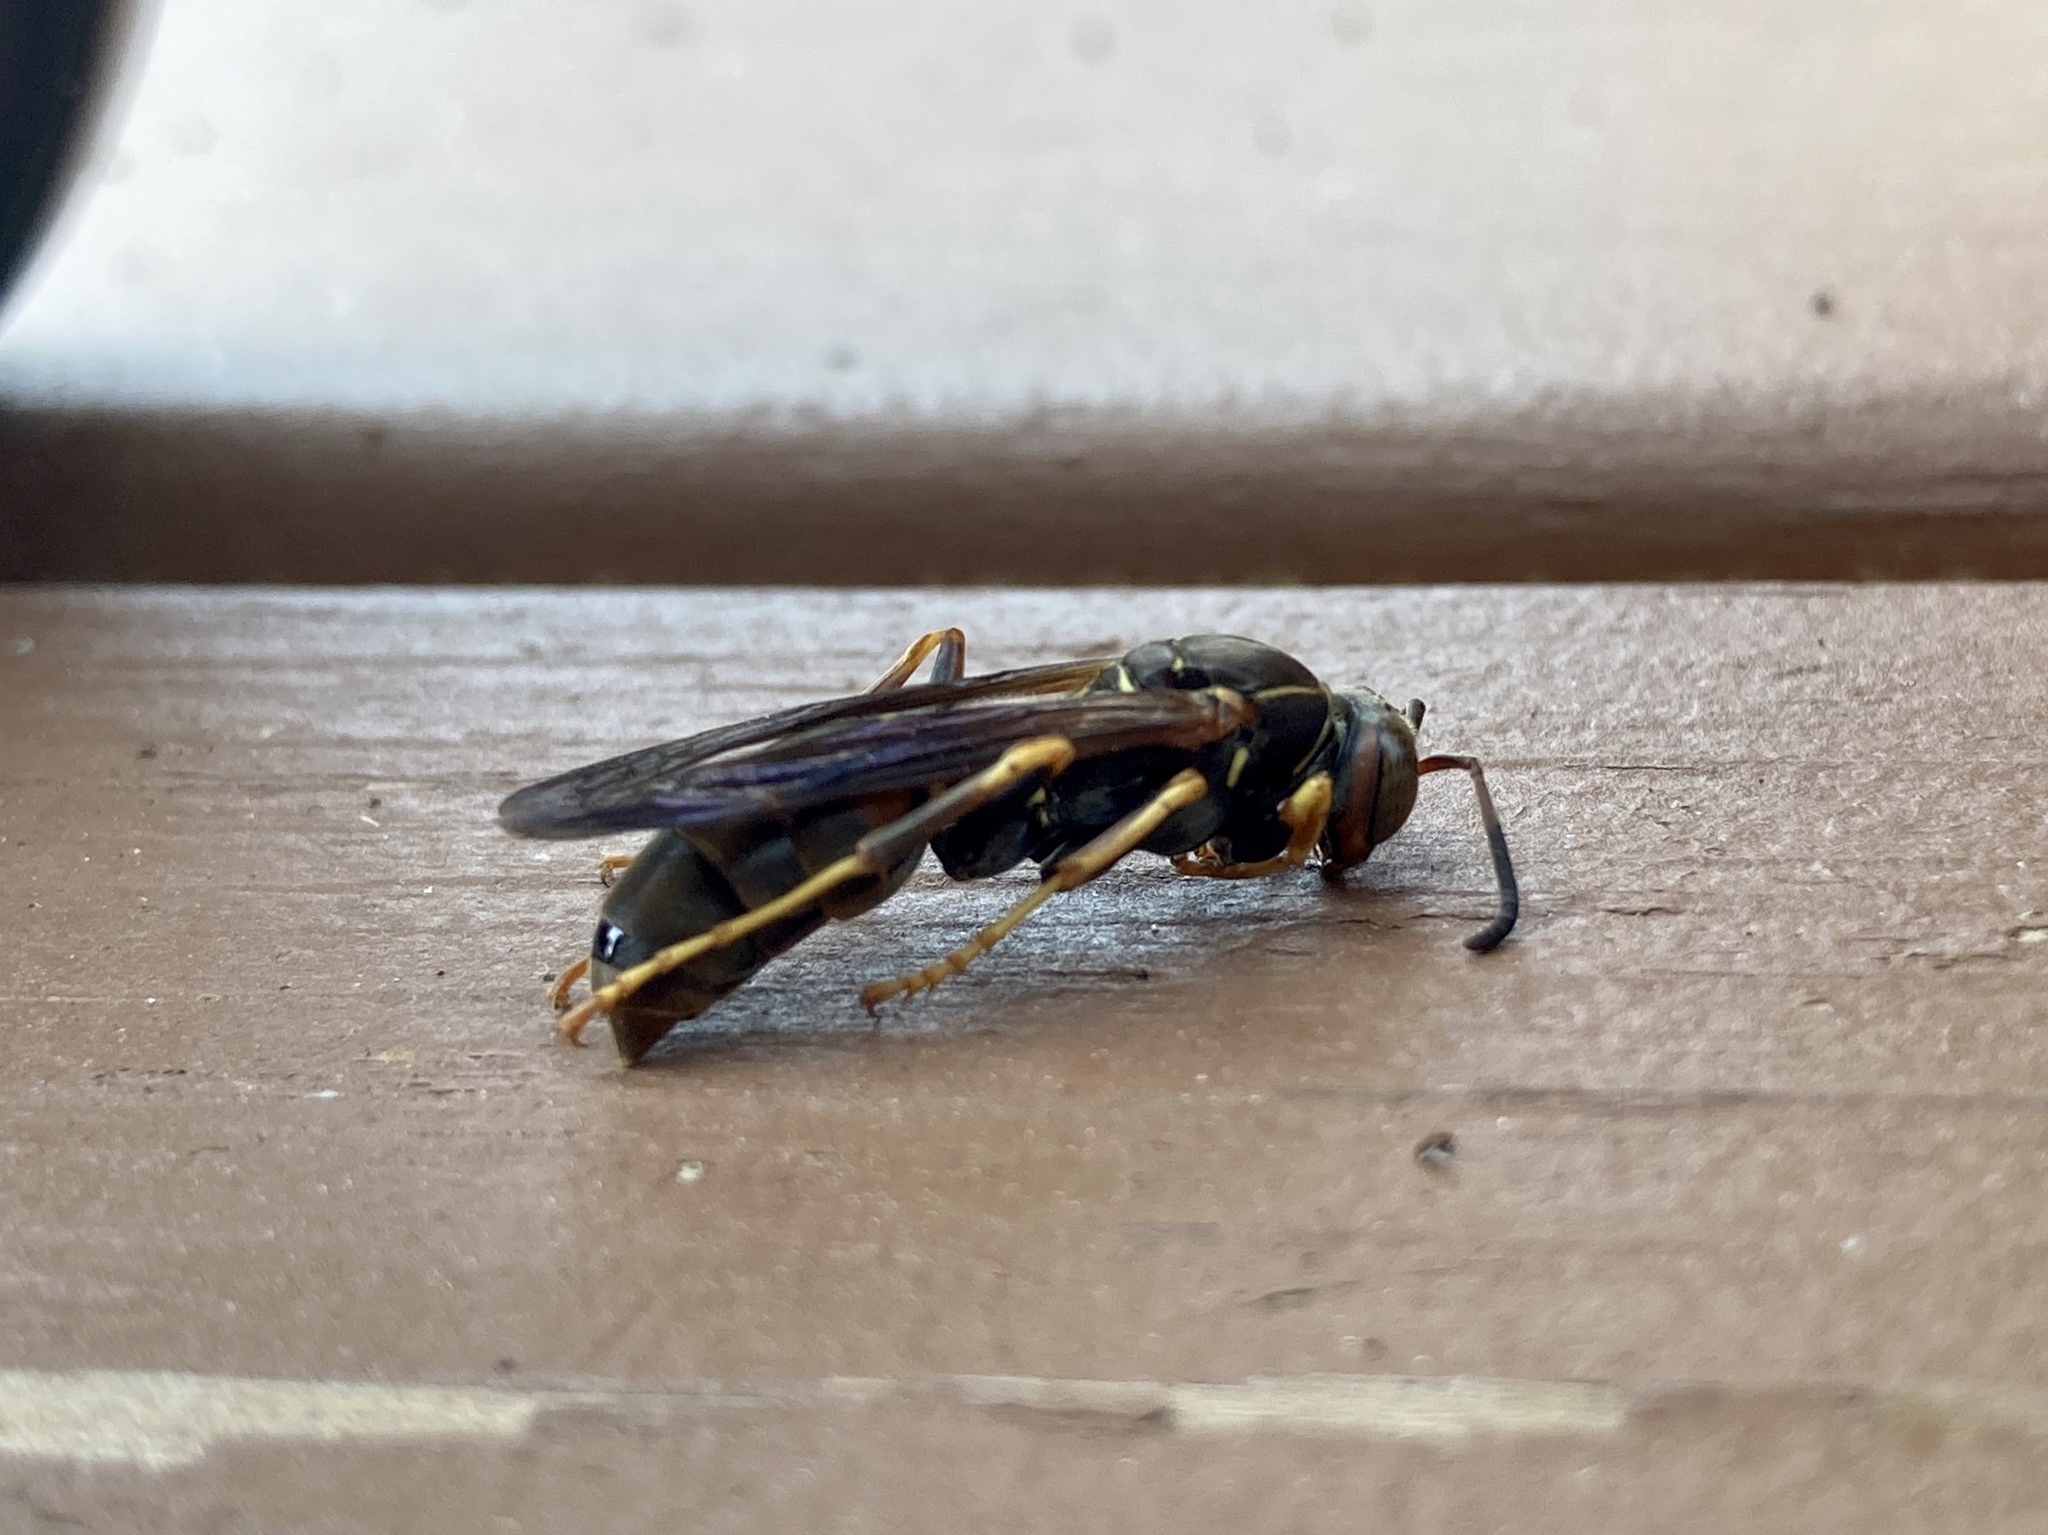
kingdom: Animalia
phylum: Arthropoda
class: Insecta
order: Hymenoptera
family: Eumenidae
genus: Polistes
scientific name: Polistes fuscatus
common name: Dark paper wasp
